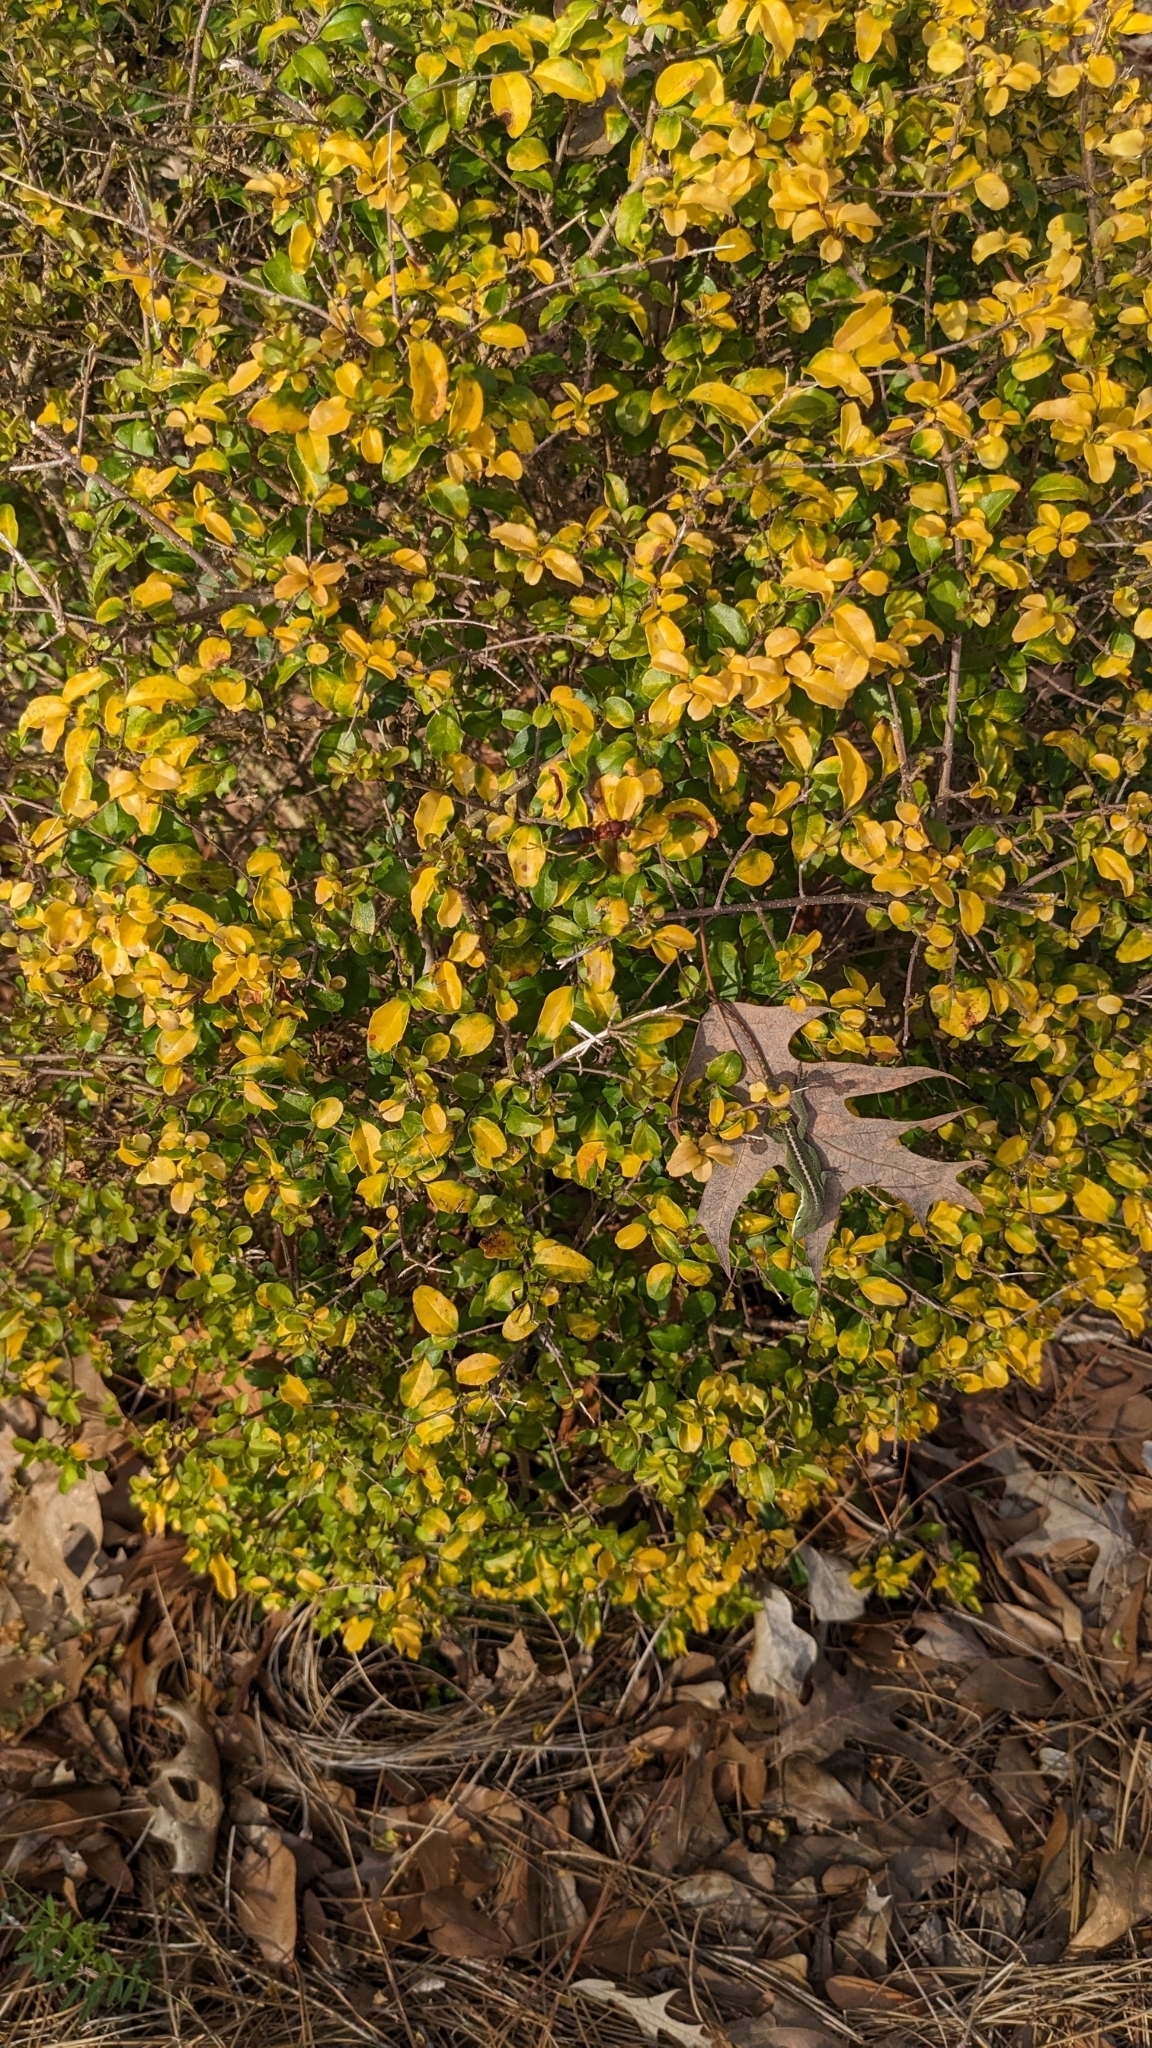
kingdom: Animalia
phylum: Chordata
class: Squamata
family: Dactyloidae
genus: Anolis
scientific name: Anolis carolinensis
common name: Green anole
